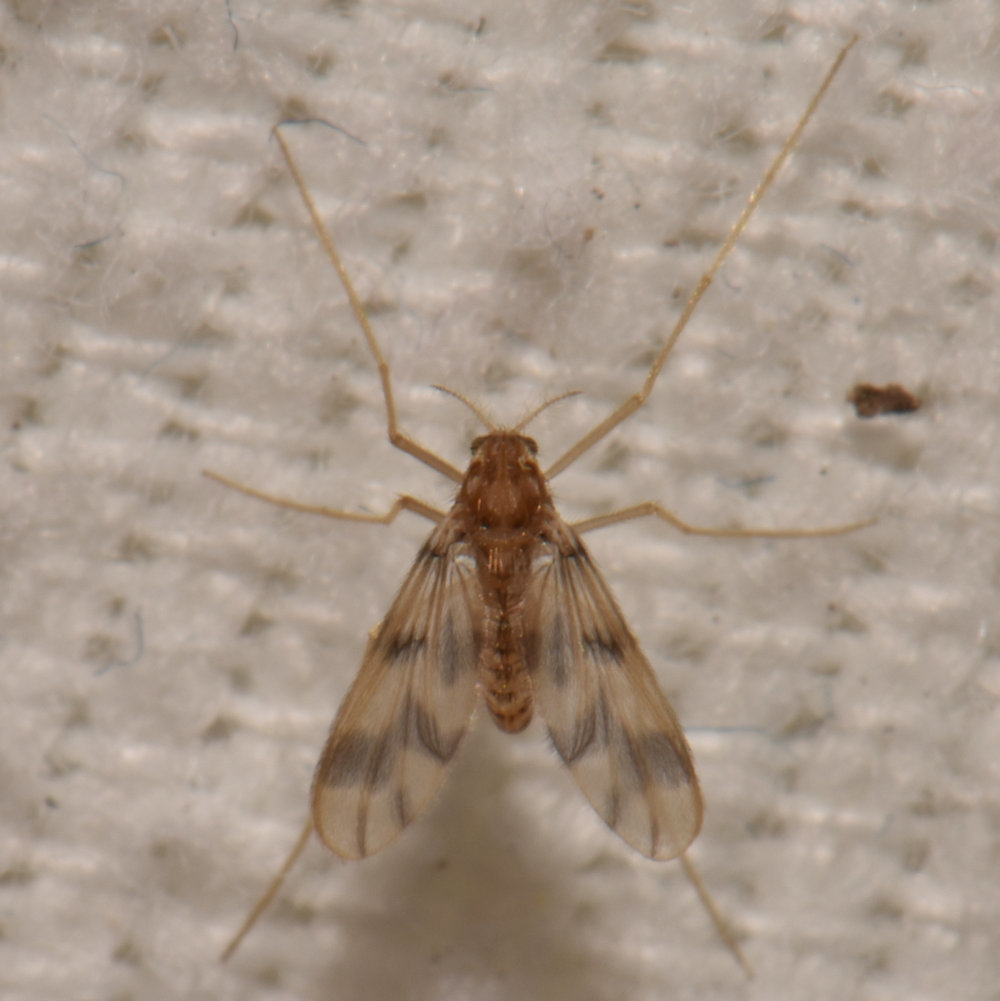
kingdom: Animalia
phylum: Arthropoda
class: Insecta
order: Diptera
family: Chironomidae
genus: Zavrelimyia
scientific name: Zavrelimyia sinuosa
